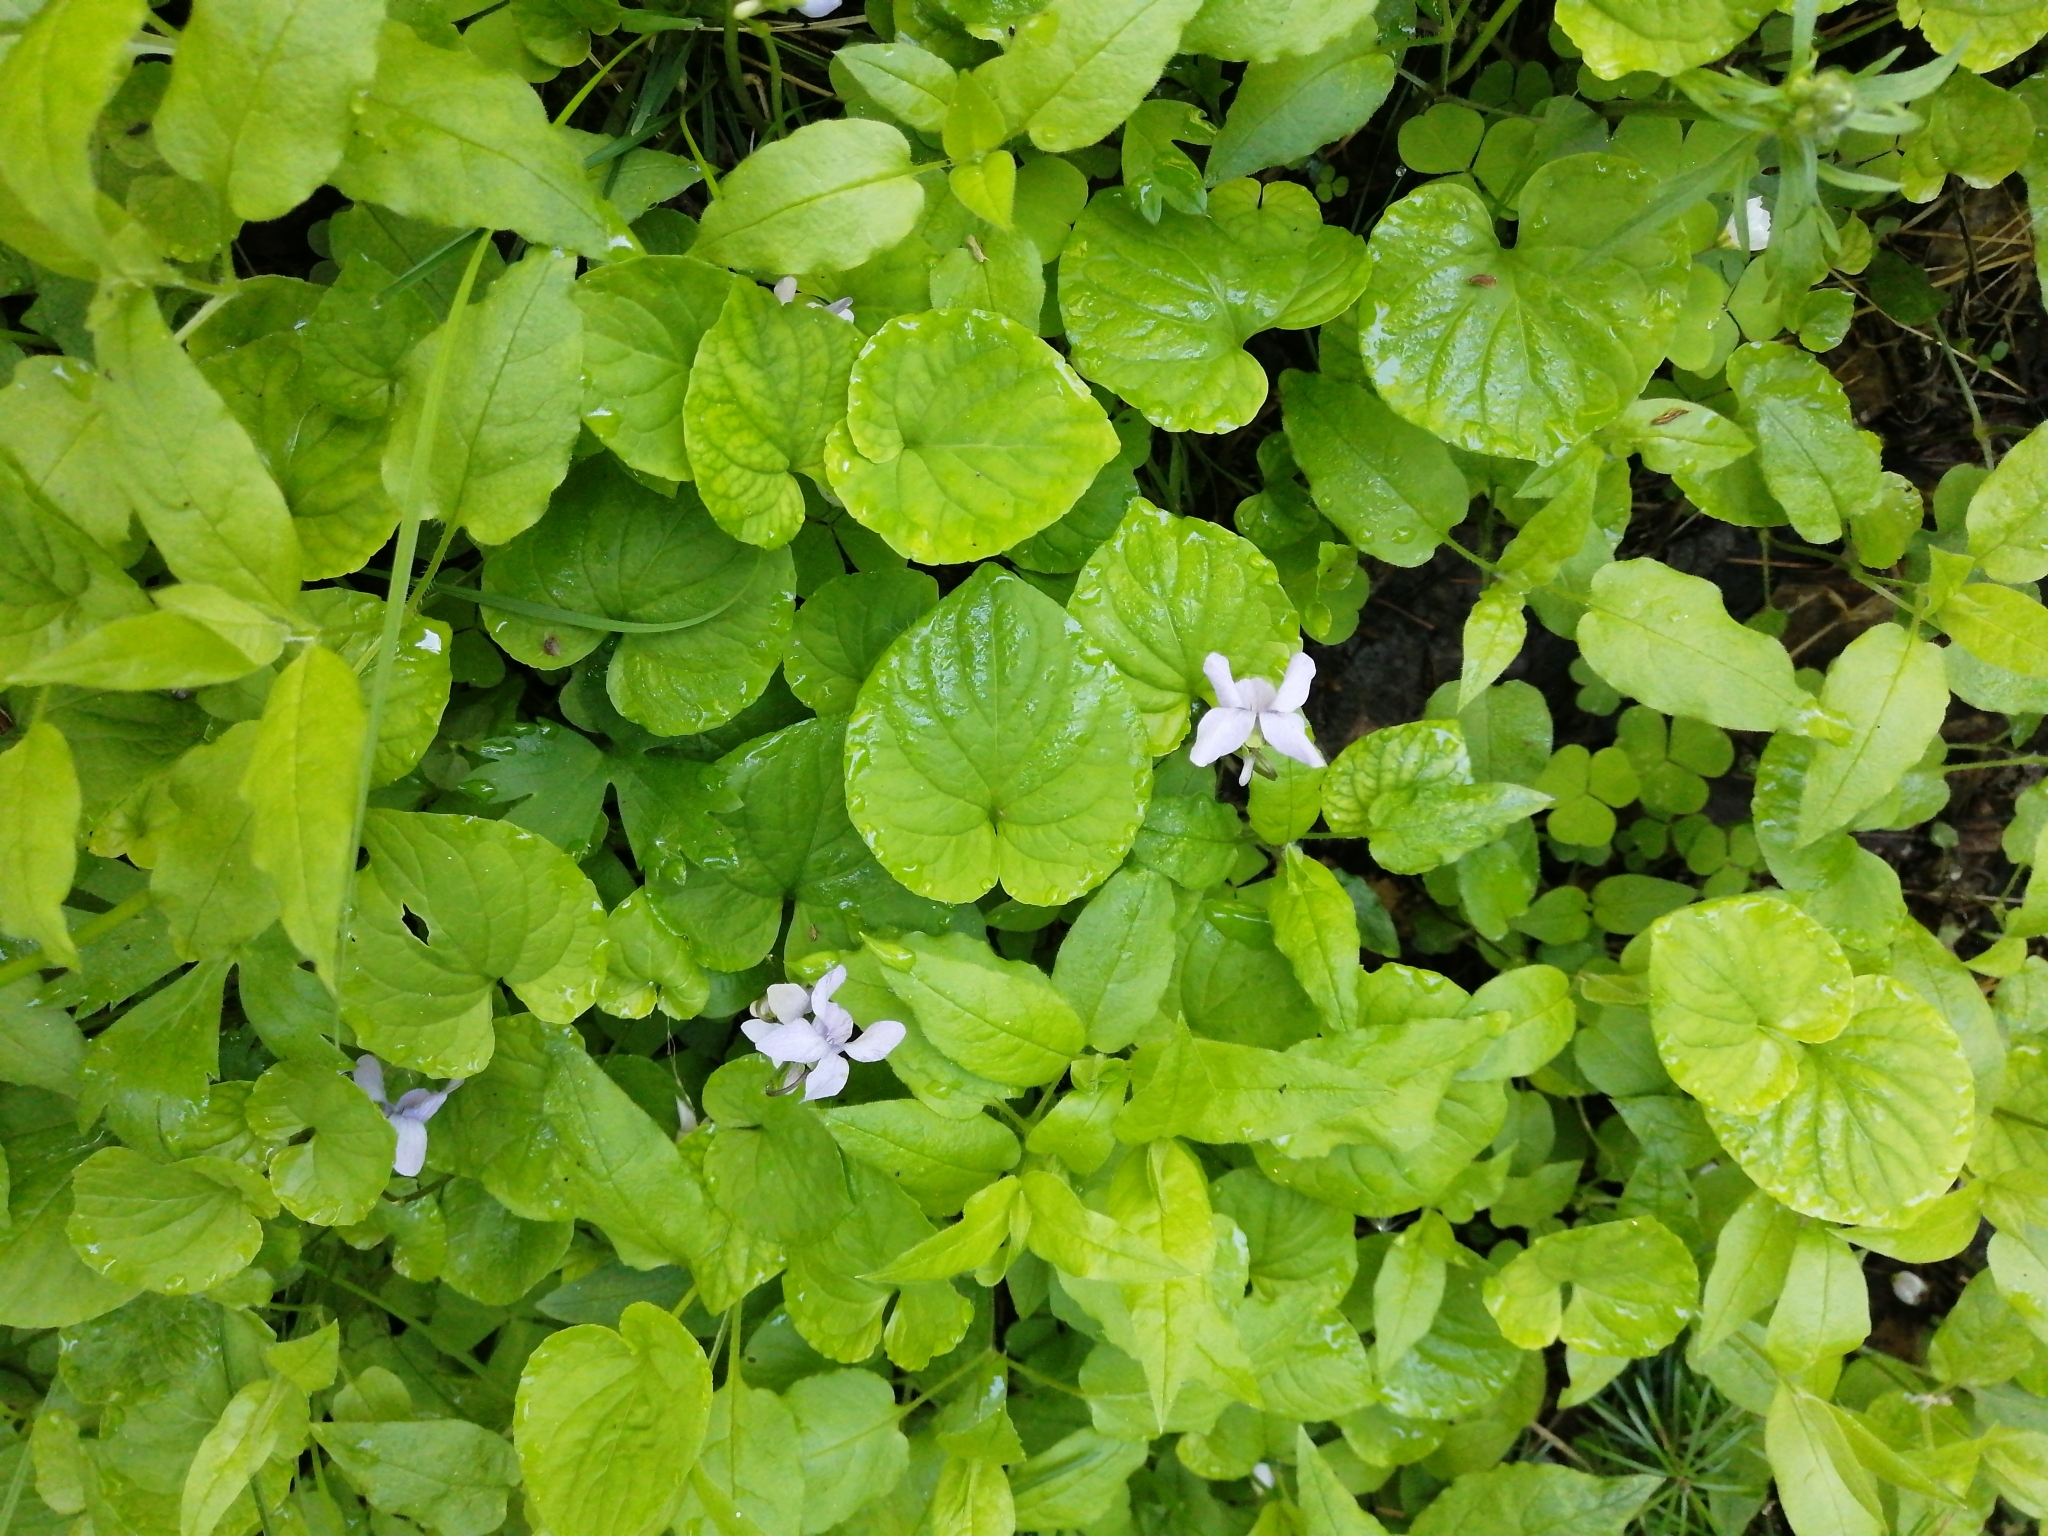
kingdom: Plantae
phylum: Tracheophyta
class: Magnoliopsida
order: Malpighiales
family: Violaceae
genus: Viola
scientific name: Viola epipsila
